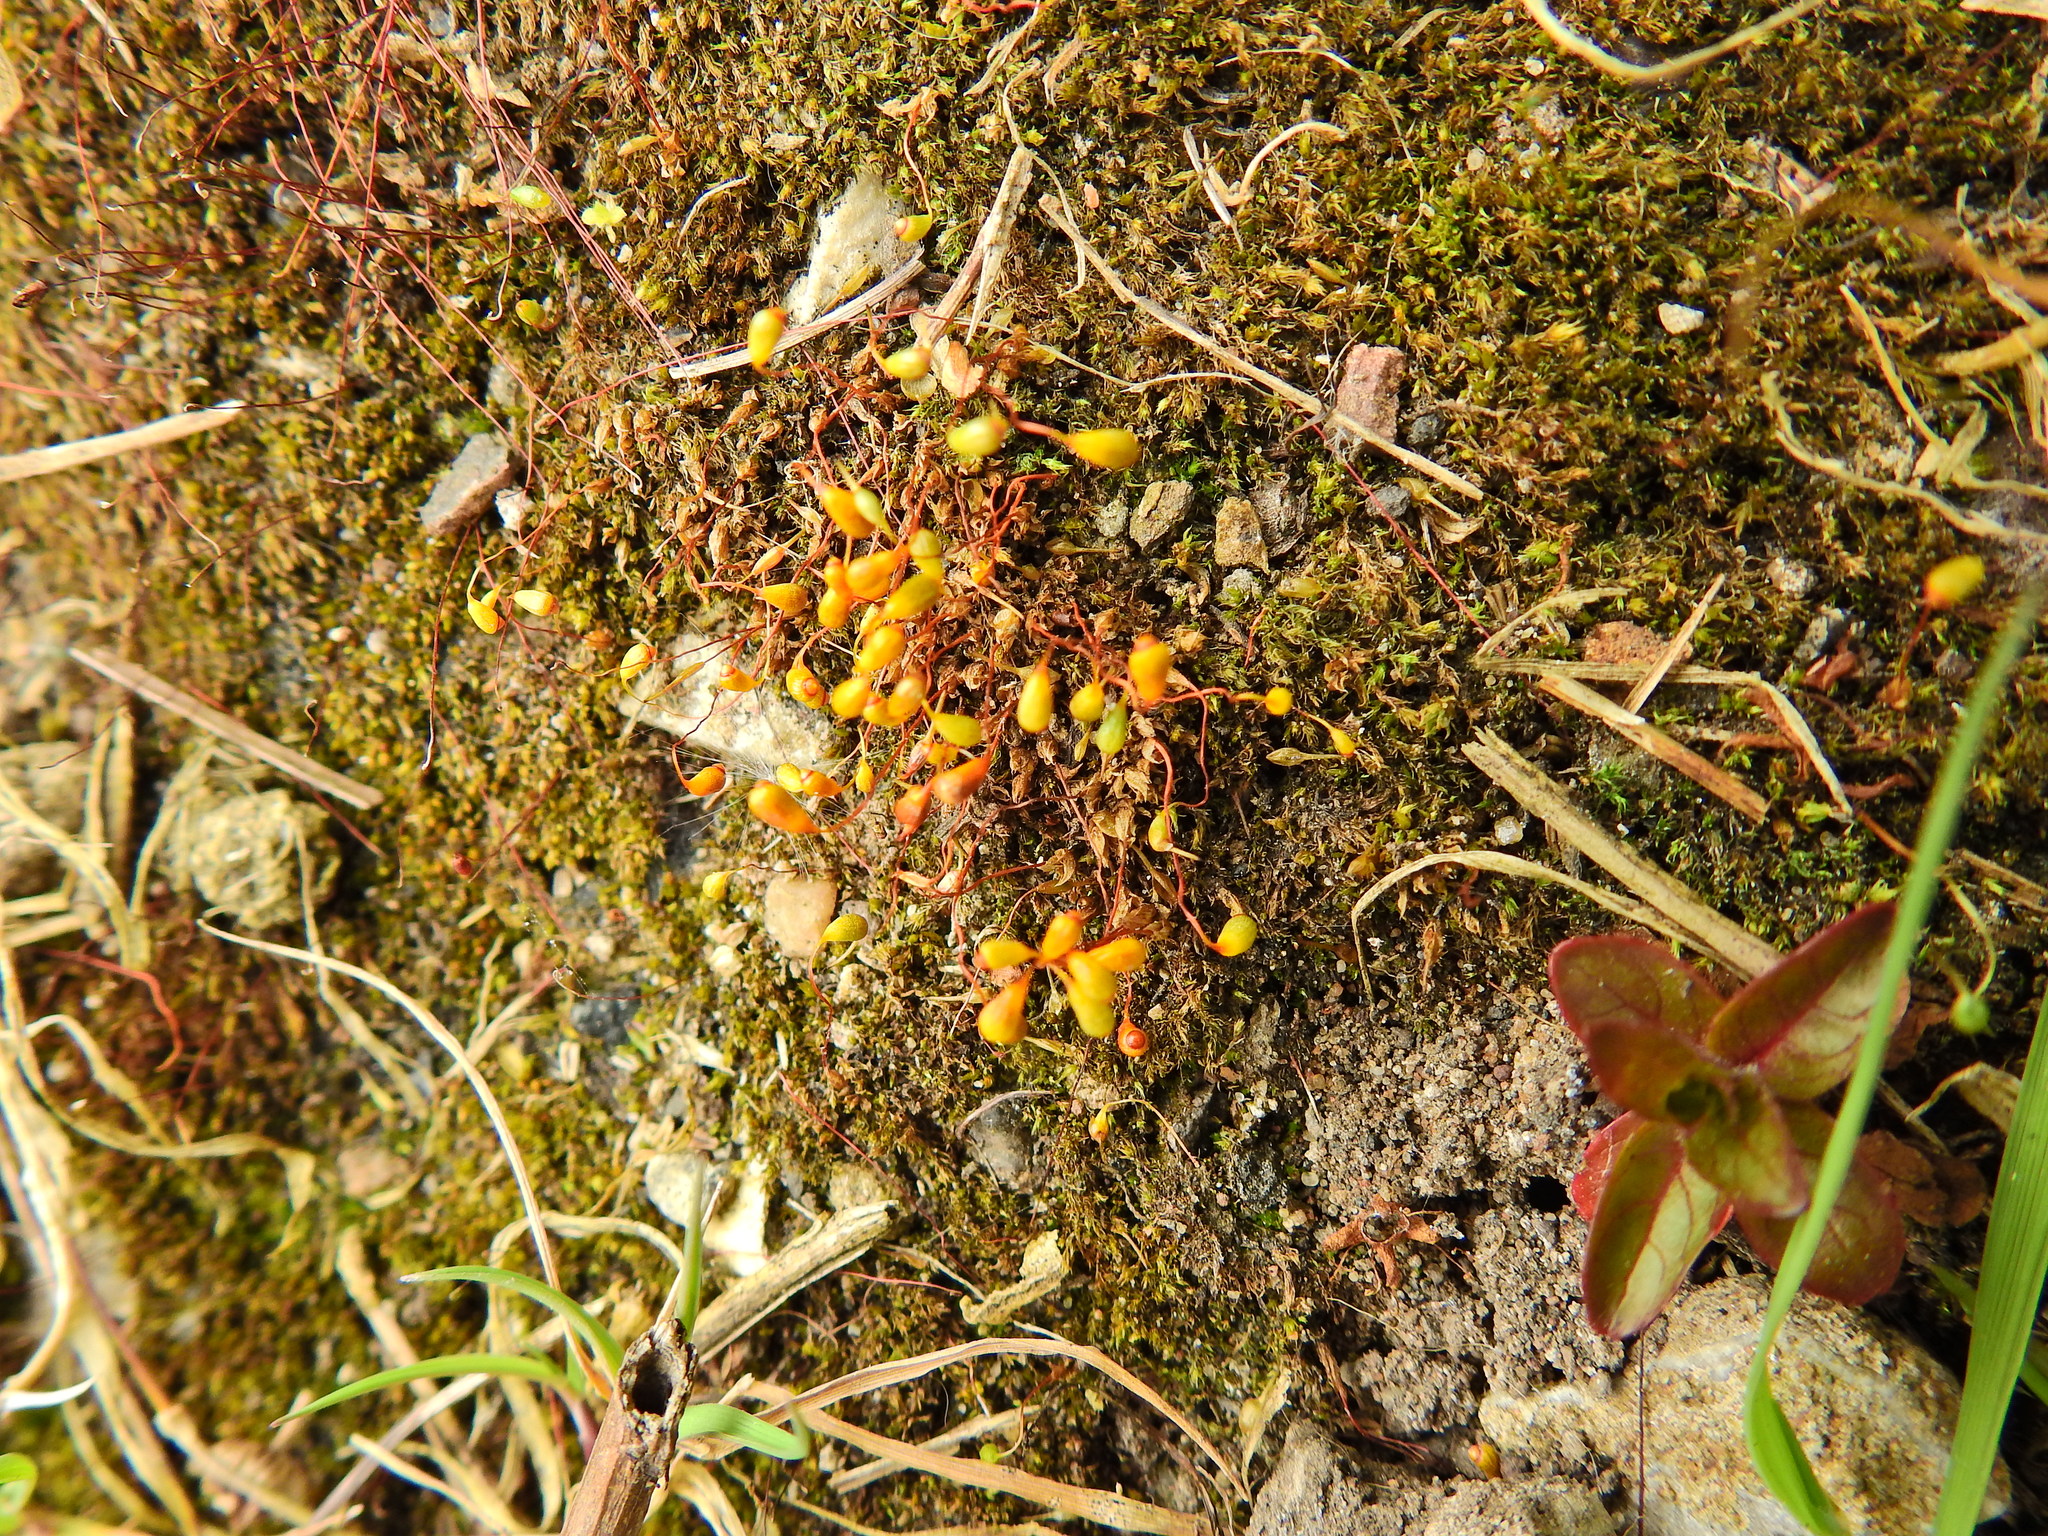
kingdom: Plantae
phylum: Bryophyta
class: Bryopsida
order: Funariales
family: Funariaceae
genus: Funaria
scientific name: Funaria hygrometrica
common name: Common cord moss
